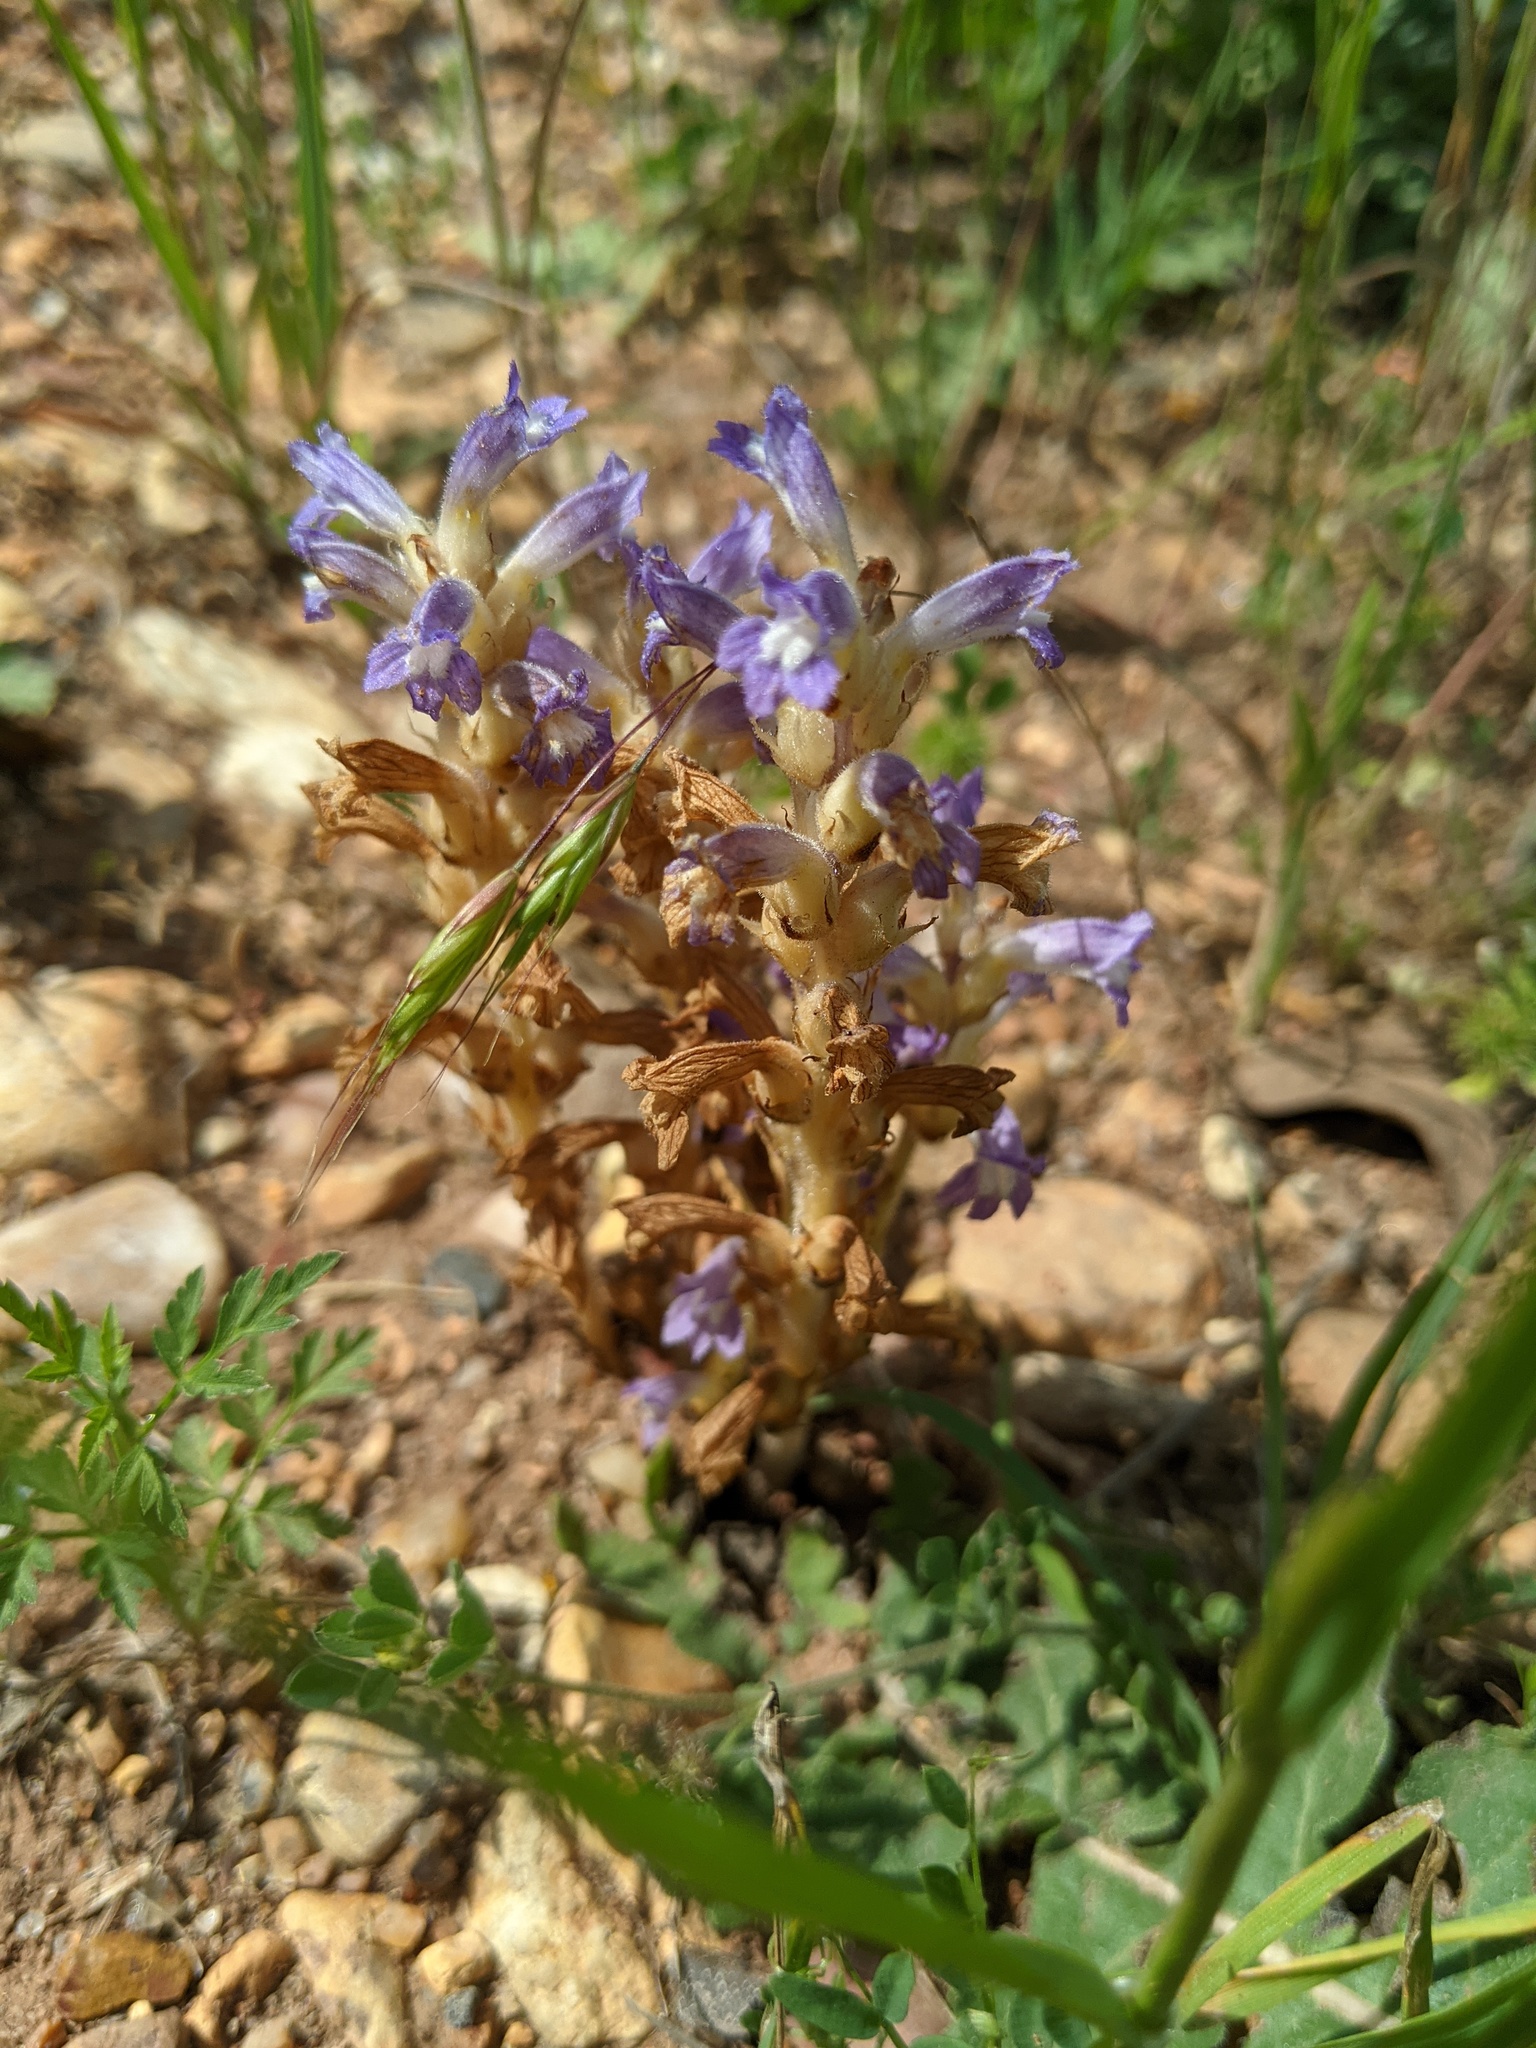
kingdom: Plantae
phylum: Tracheophyta
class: Magnoliopsida
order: Lamiales
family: Orobanchaceae
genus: Phelipanche
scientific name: Phelipanche mutelii
